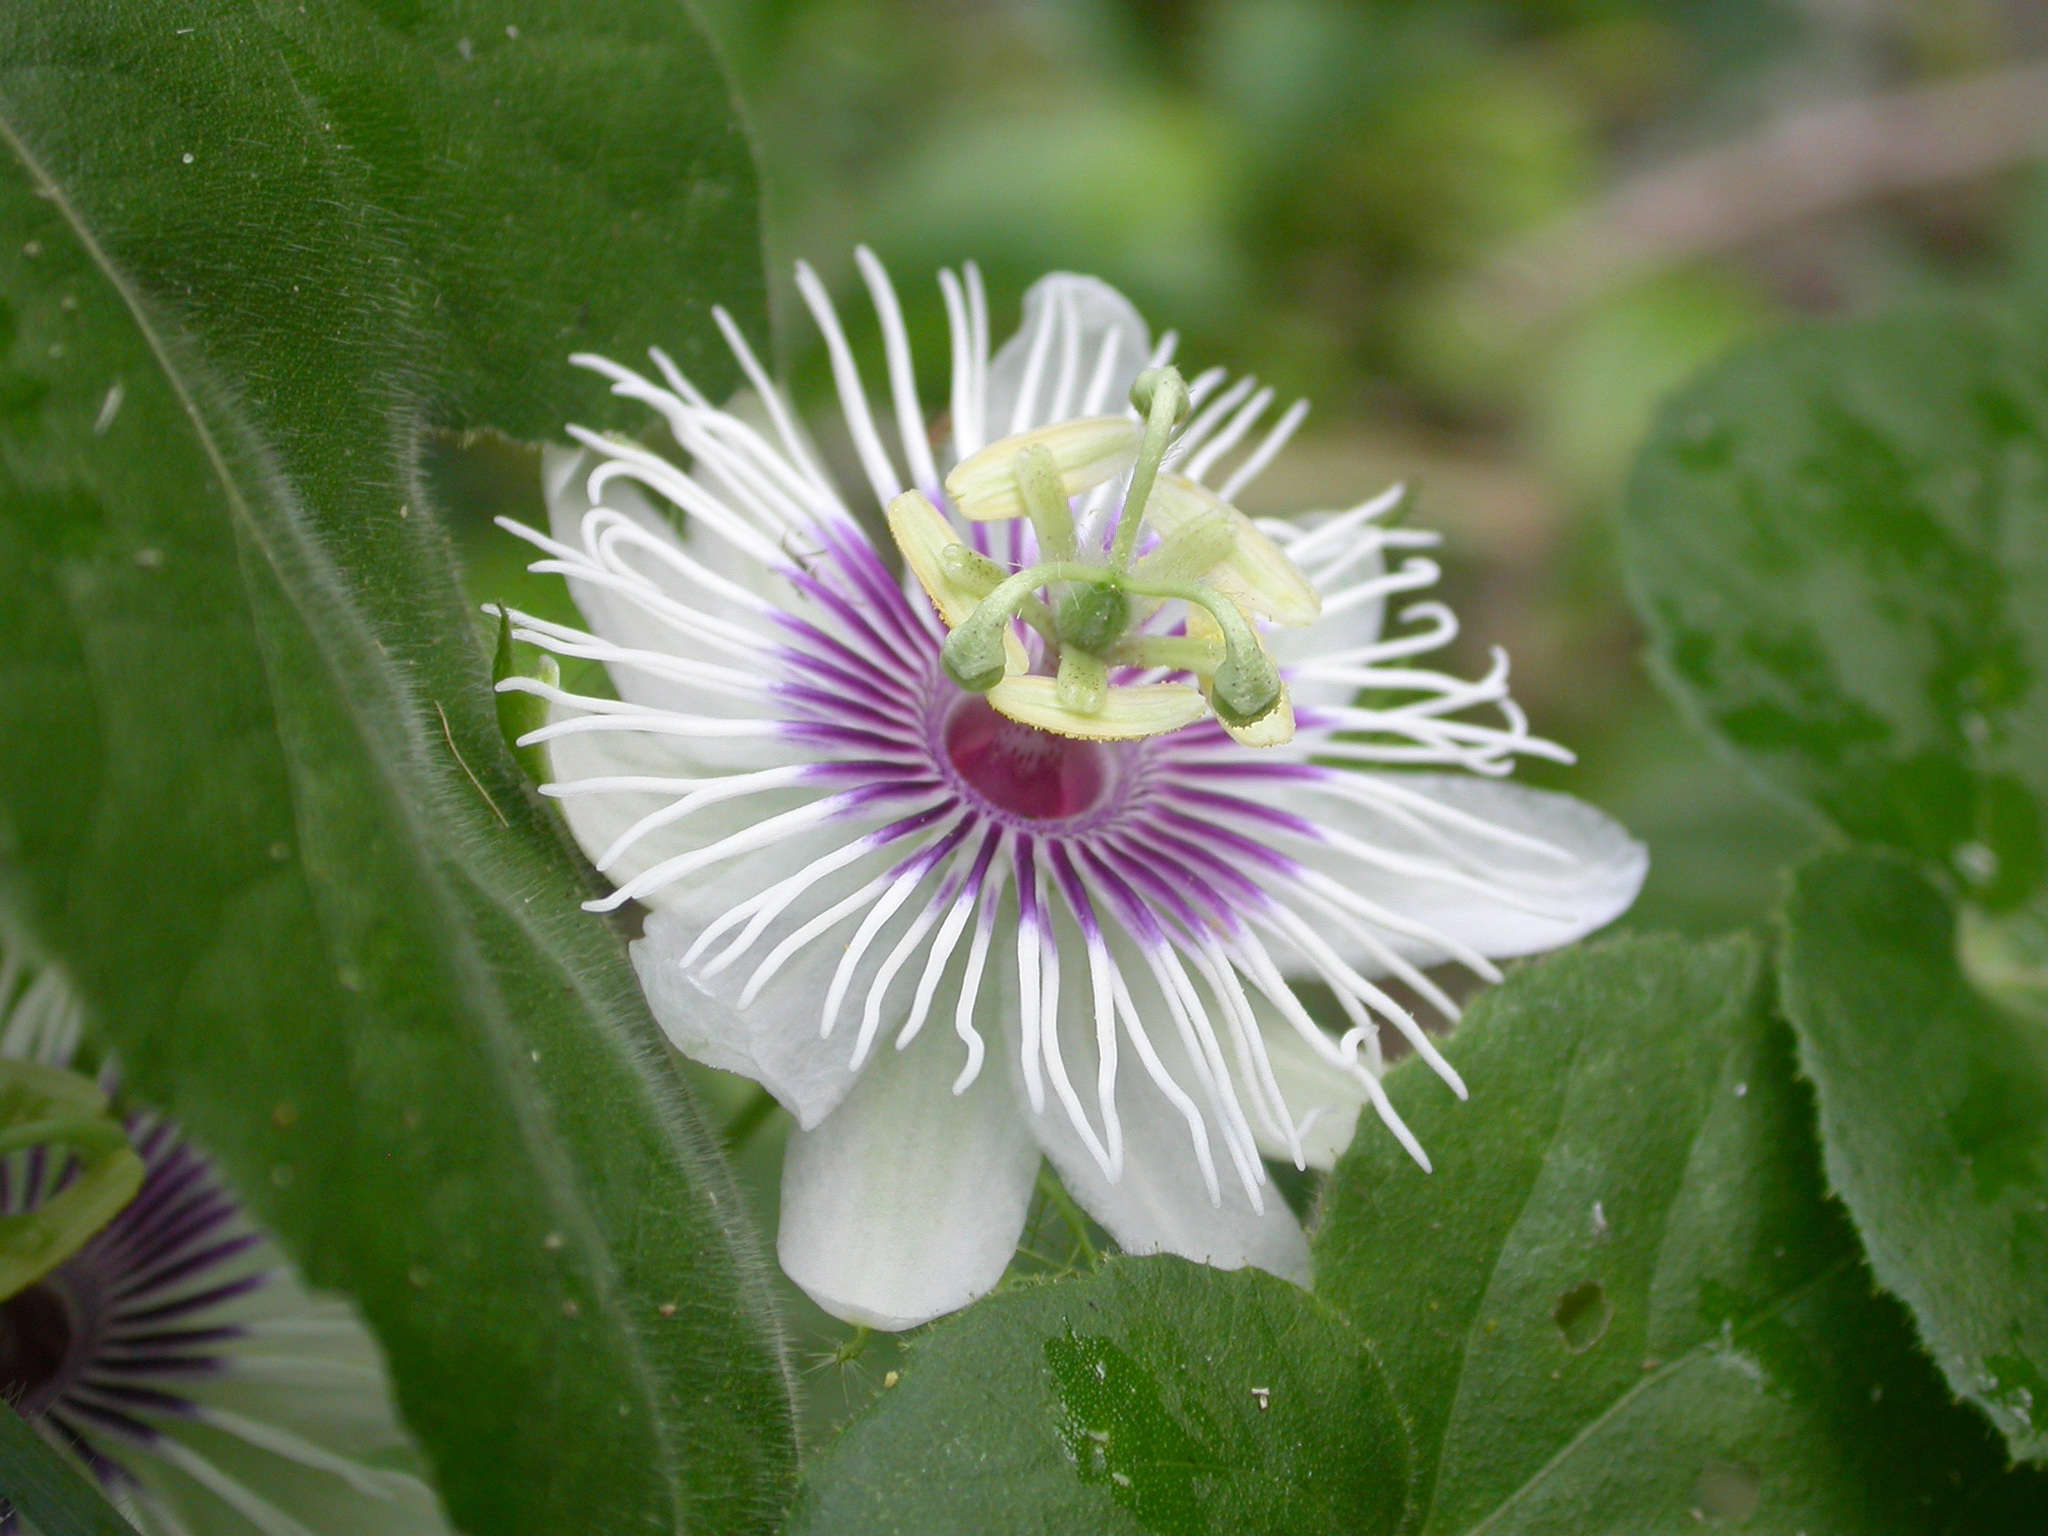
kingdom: Plantae
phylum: Tracheophyta
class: Magnoliopsida
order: Malpighiales
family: Passifloraceae
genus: Passiflora
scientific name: Passiflora foetida
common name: Fetid passionflower
